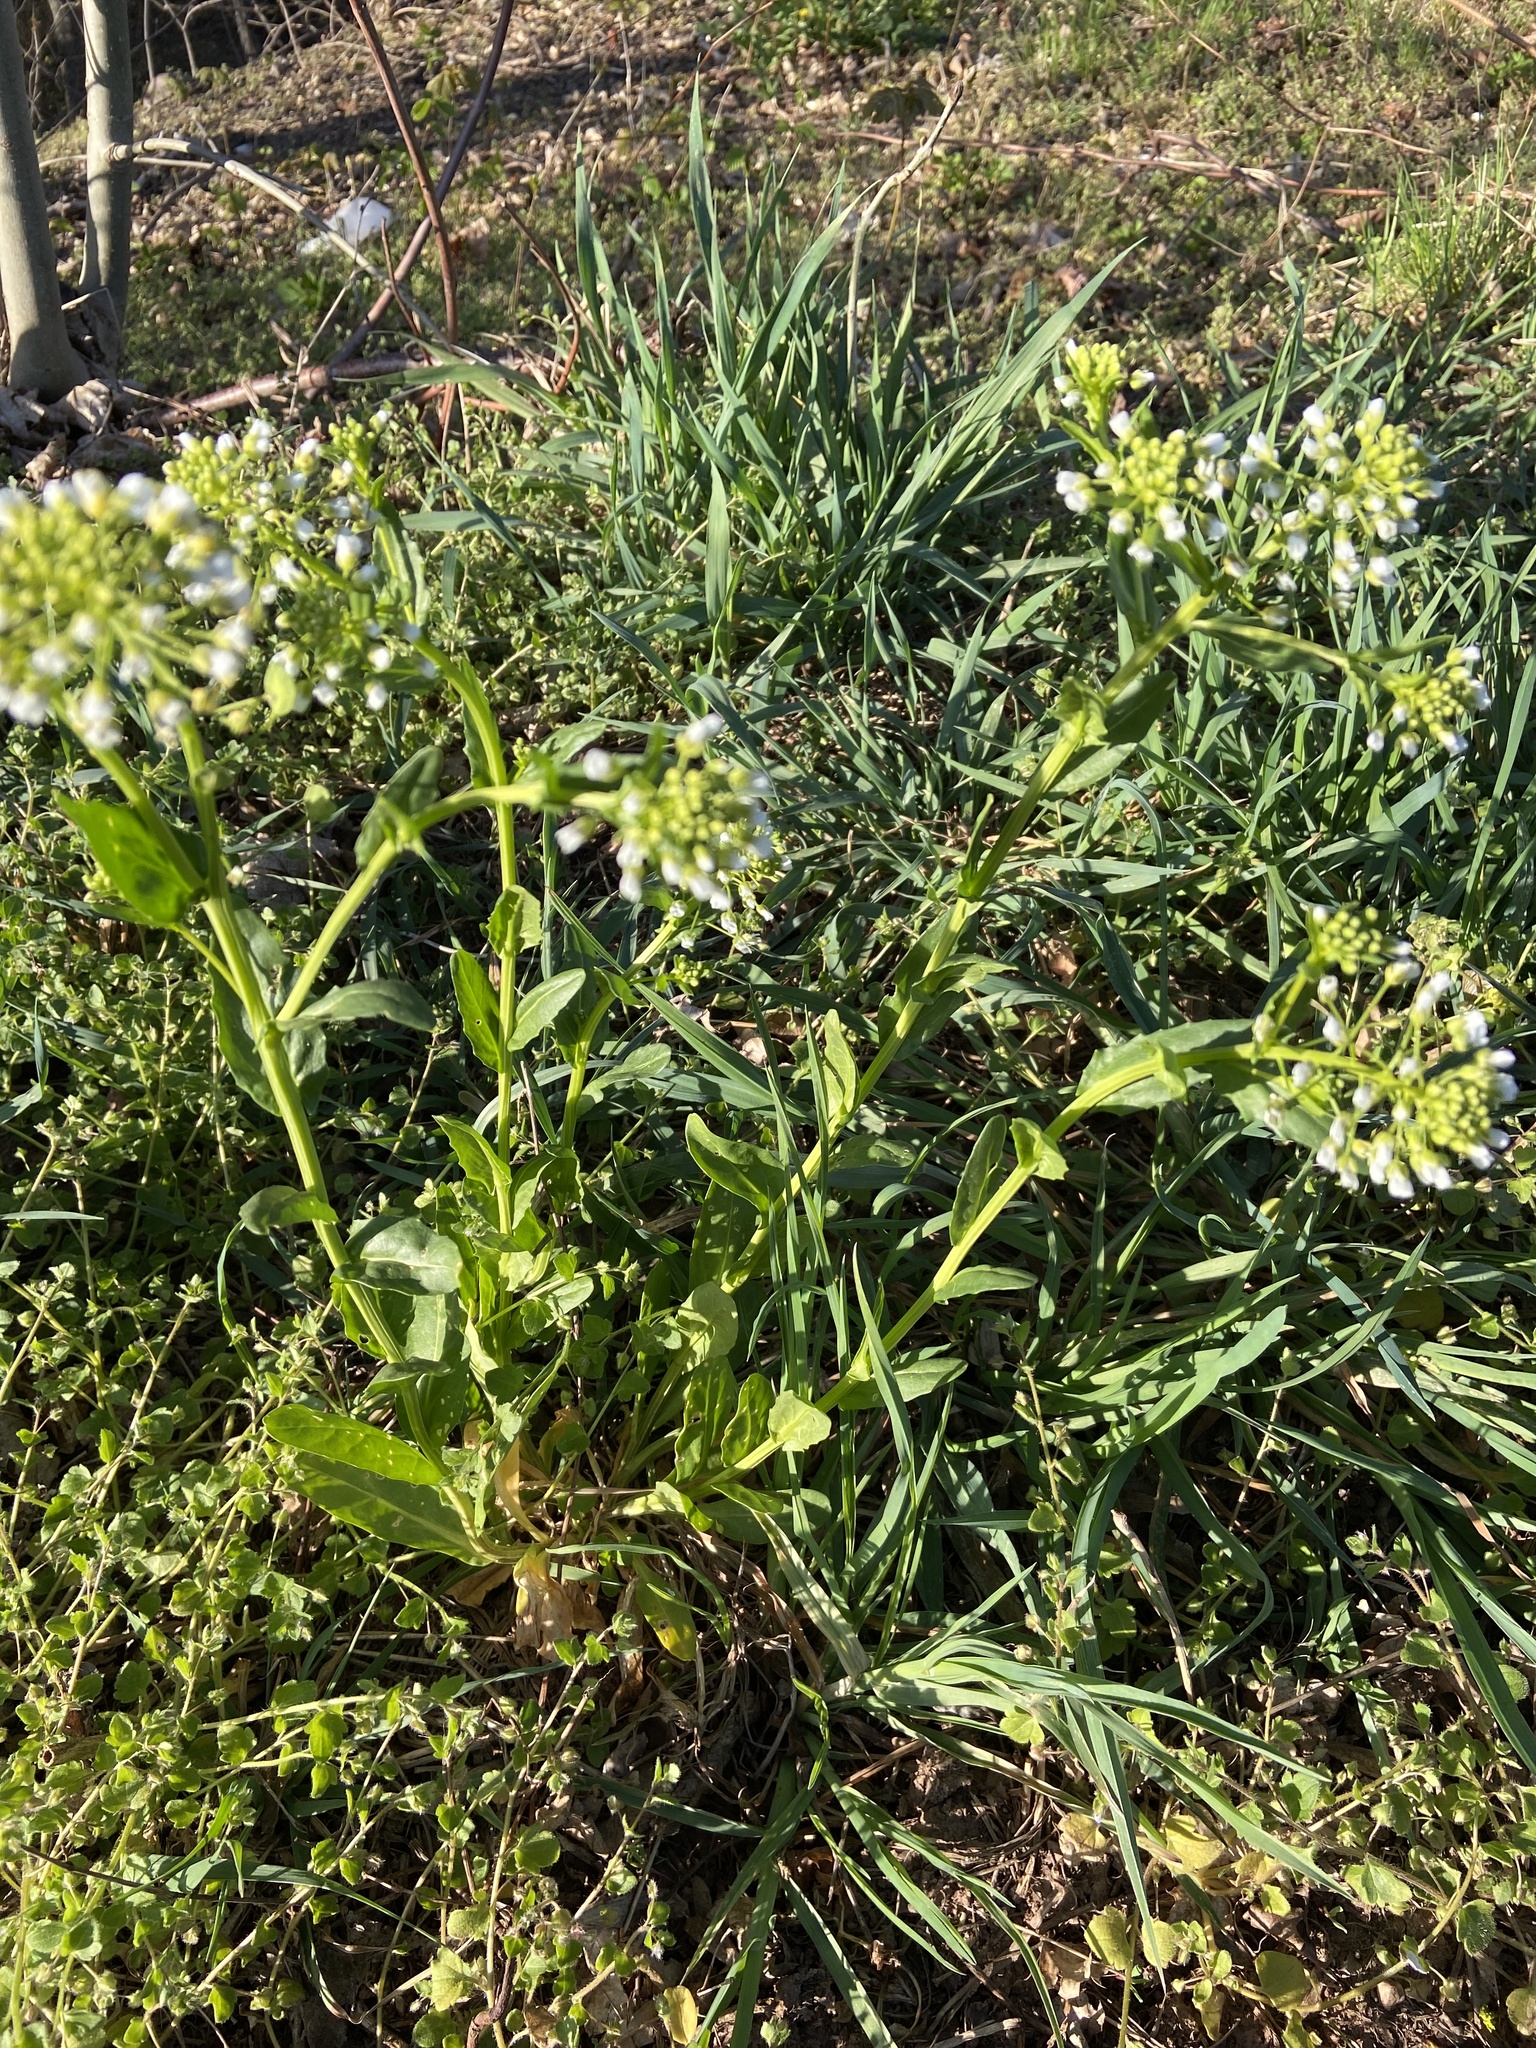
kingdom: Plantae
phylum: Tracheophyta
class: Magnoliopsida
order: Brassicales
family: Brassicaceae
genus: Thlaspi
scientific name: Thlaspi arvense
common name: Field pennycress
